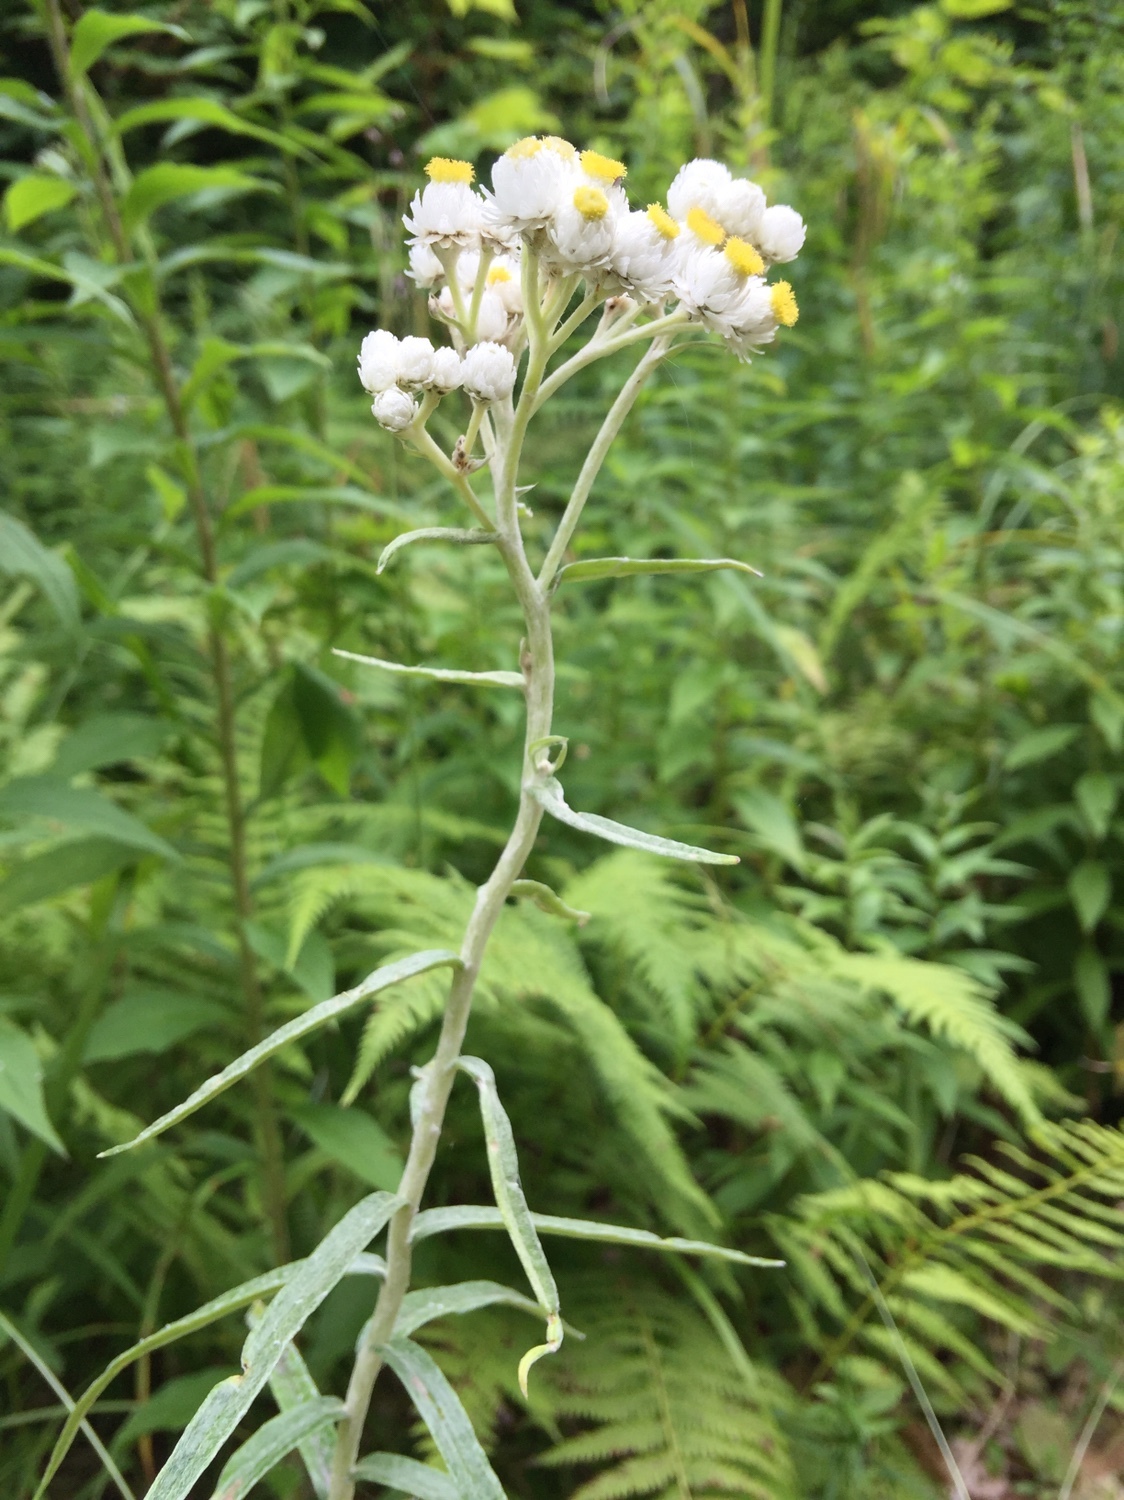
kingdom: Plantae
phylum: Tracheophyta
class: Magnoliopsida
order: Asterales
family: Asteraceae
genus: Anaphalis
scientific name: Anaphalis margaritacea
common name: Pearly everlasting
